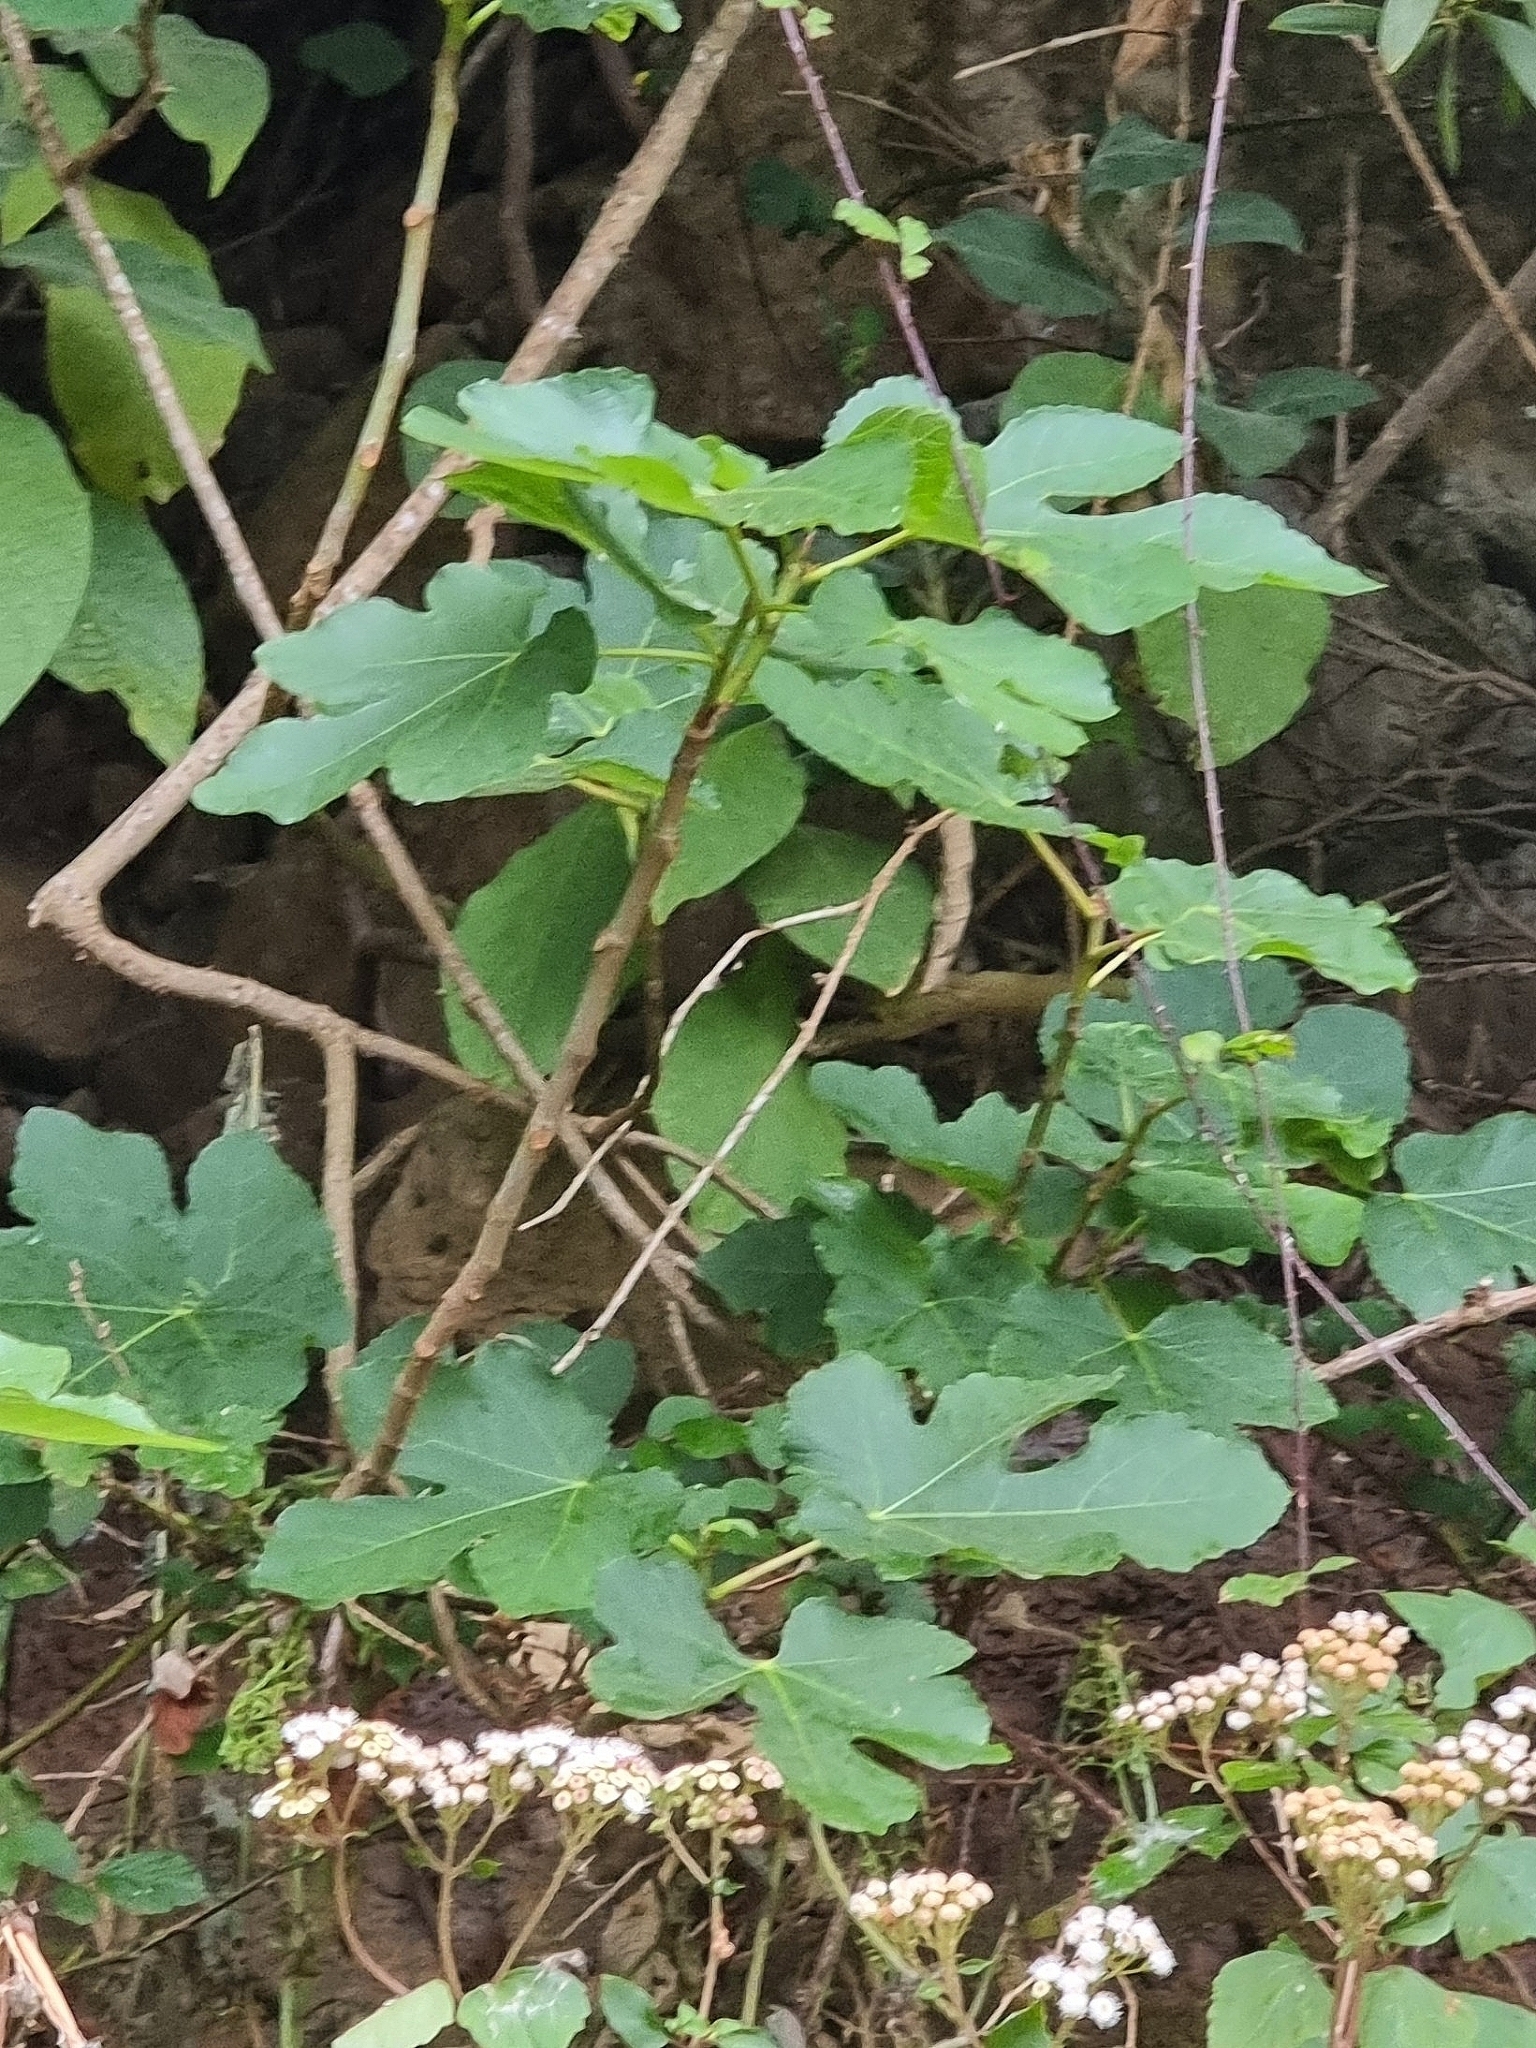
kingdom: Plantae
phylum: Tracheophyta
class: Magnoliopsida
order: Rosales
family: Moraceae
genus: Ficus
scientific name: Ficus carica
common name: Fig
